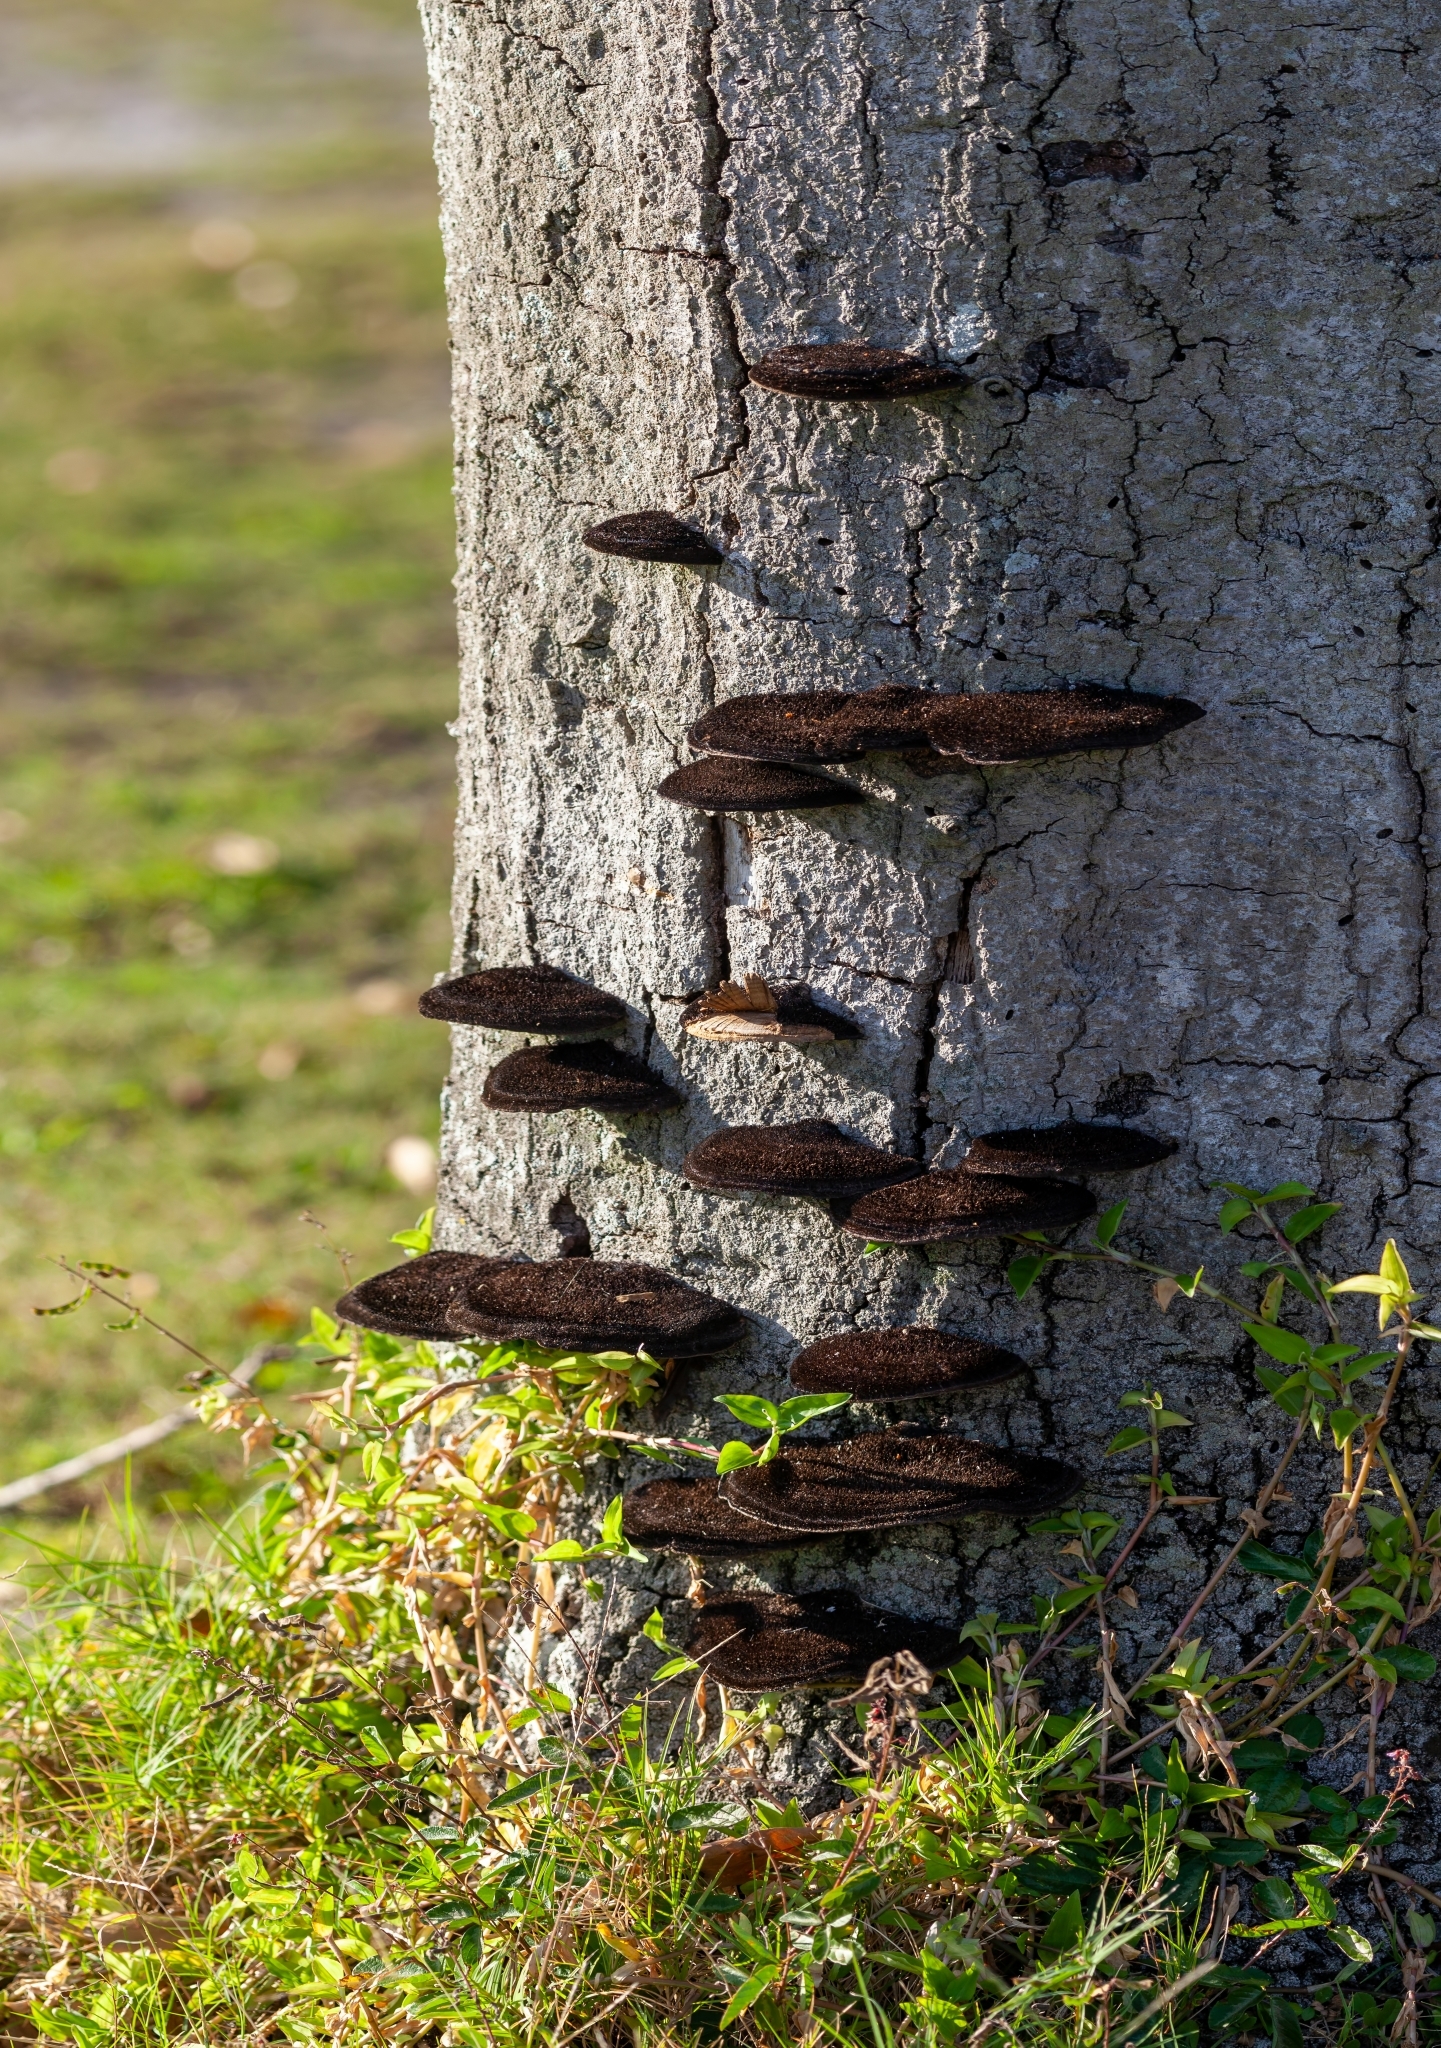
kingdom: Fungi
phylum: Basidiomycota
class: Agaricomycetes
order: Polyporales
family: Cerrenaceae
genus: Cerrena
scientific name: Cerrena hydnoides
